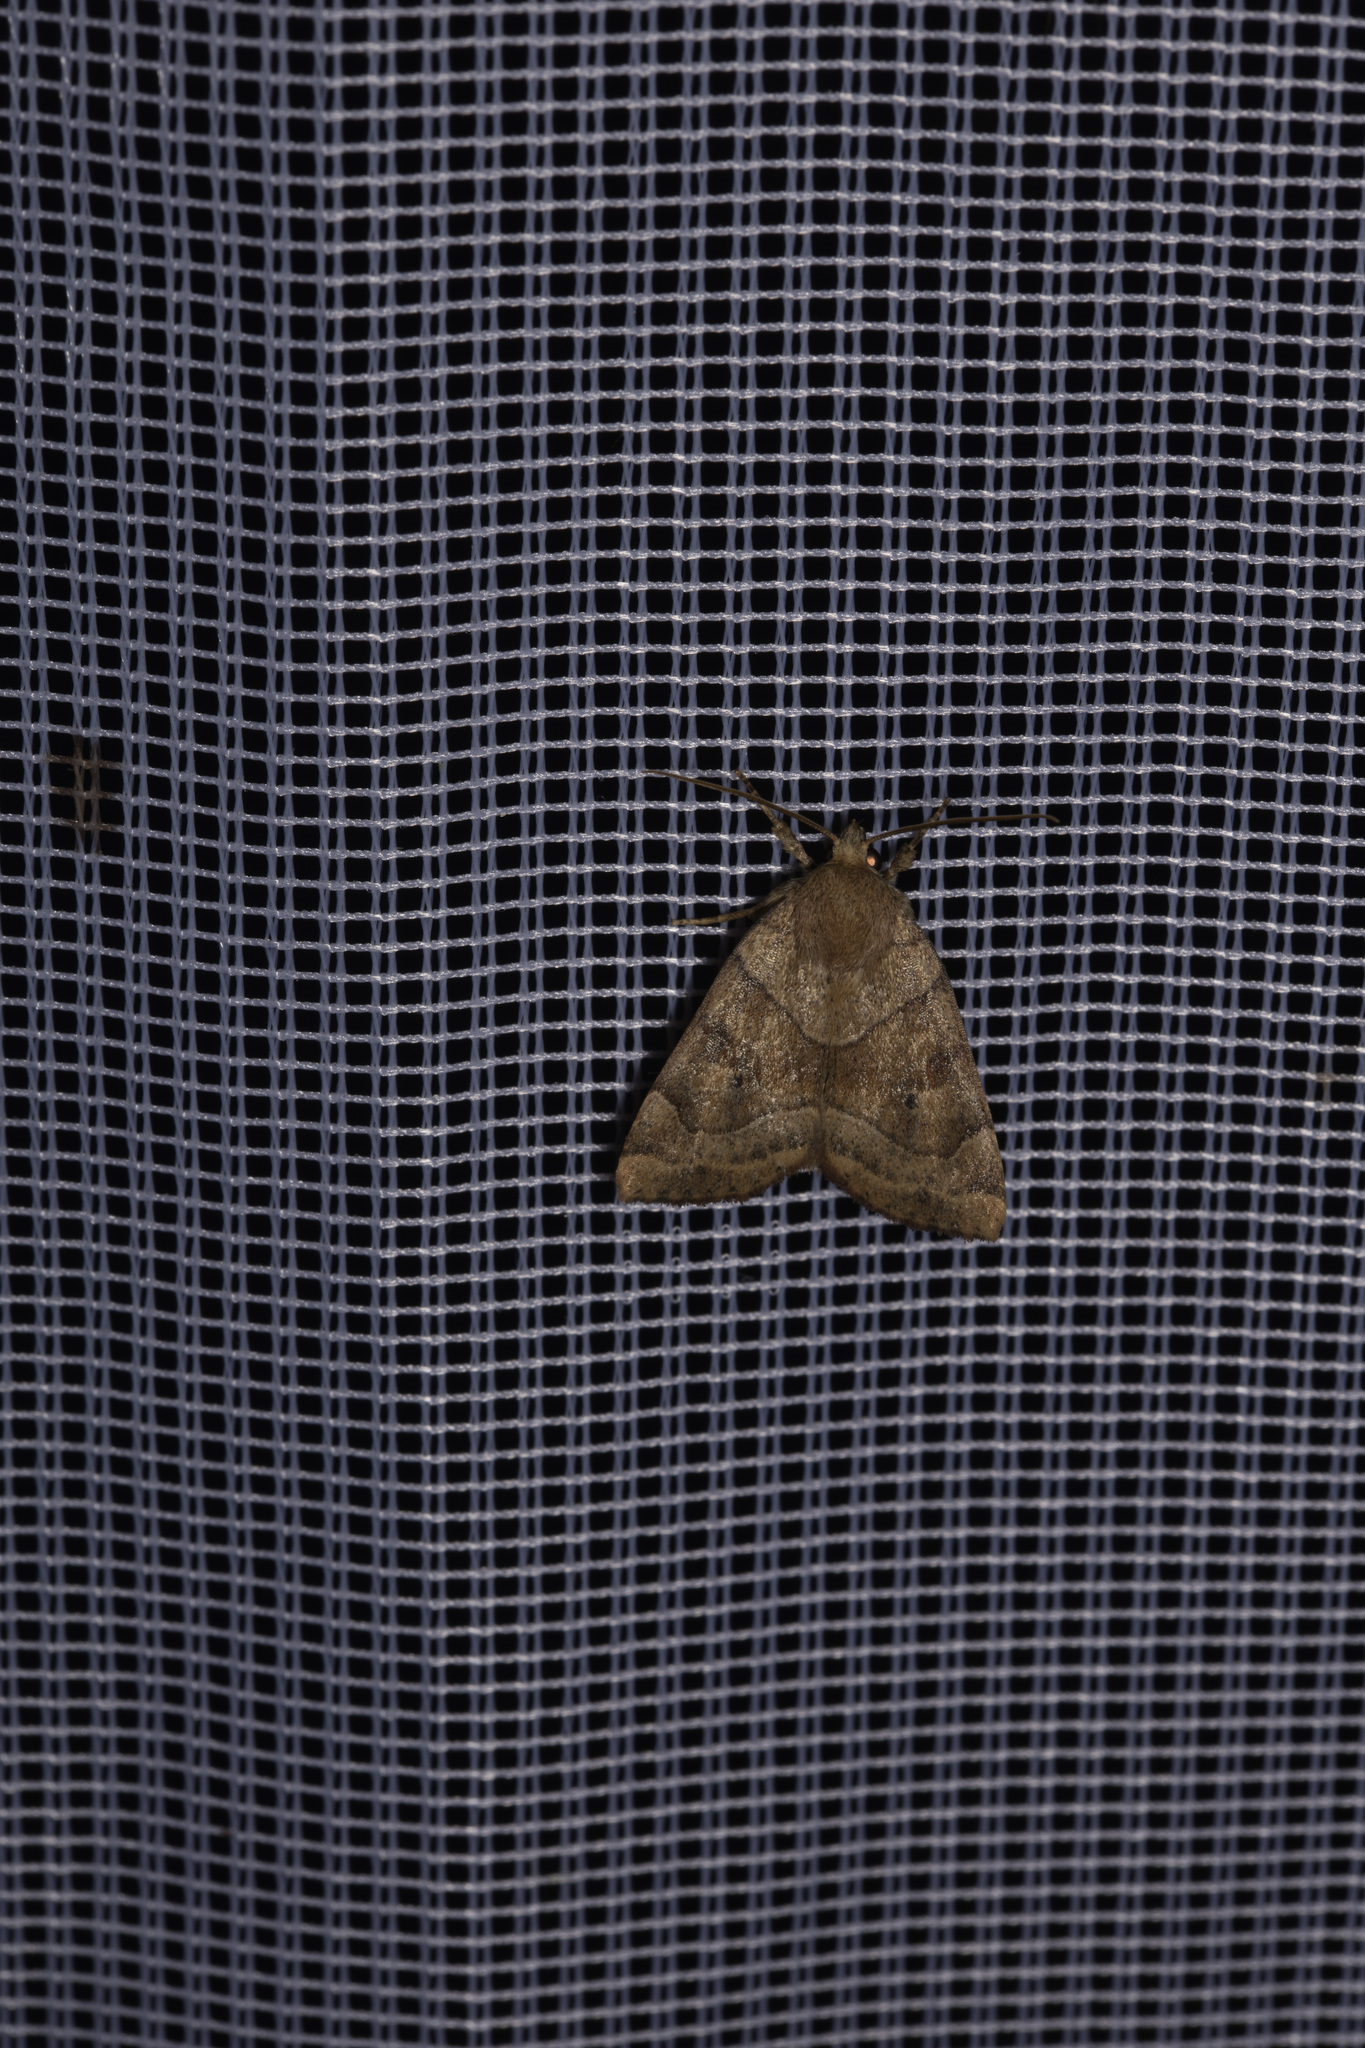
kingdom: Animalia
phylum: Arthropoda
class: Insecta
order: Lepidoptera
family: Noctuidae
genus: Cosmia
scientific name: Cosmia trapezina
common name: Dun-bar
